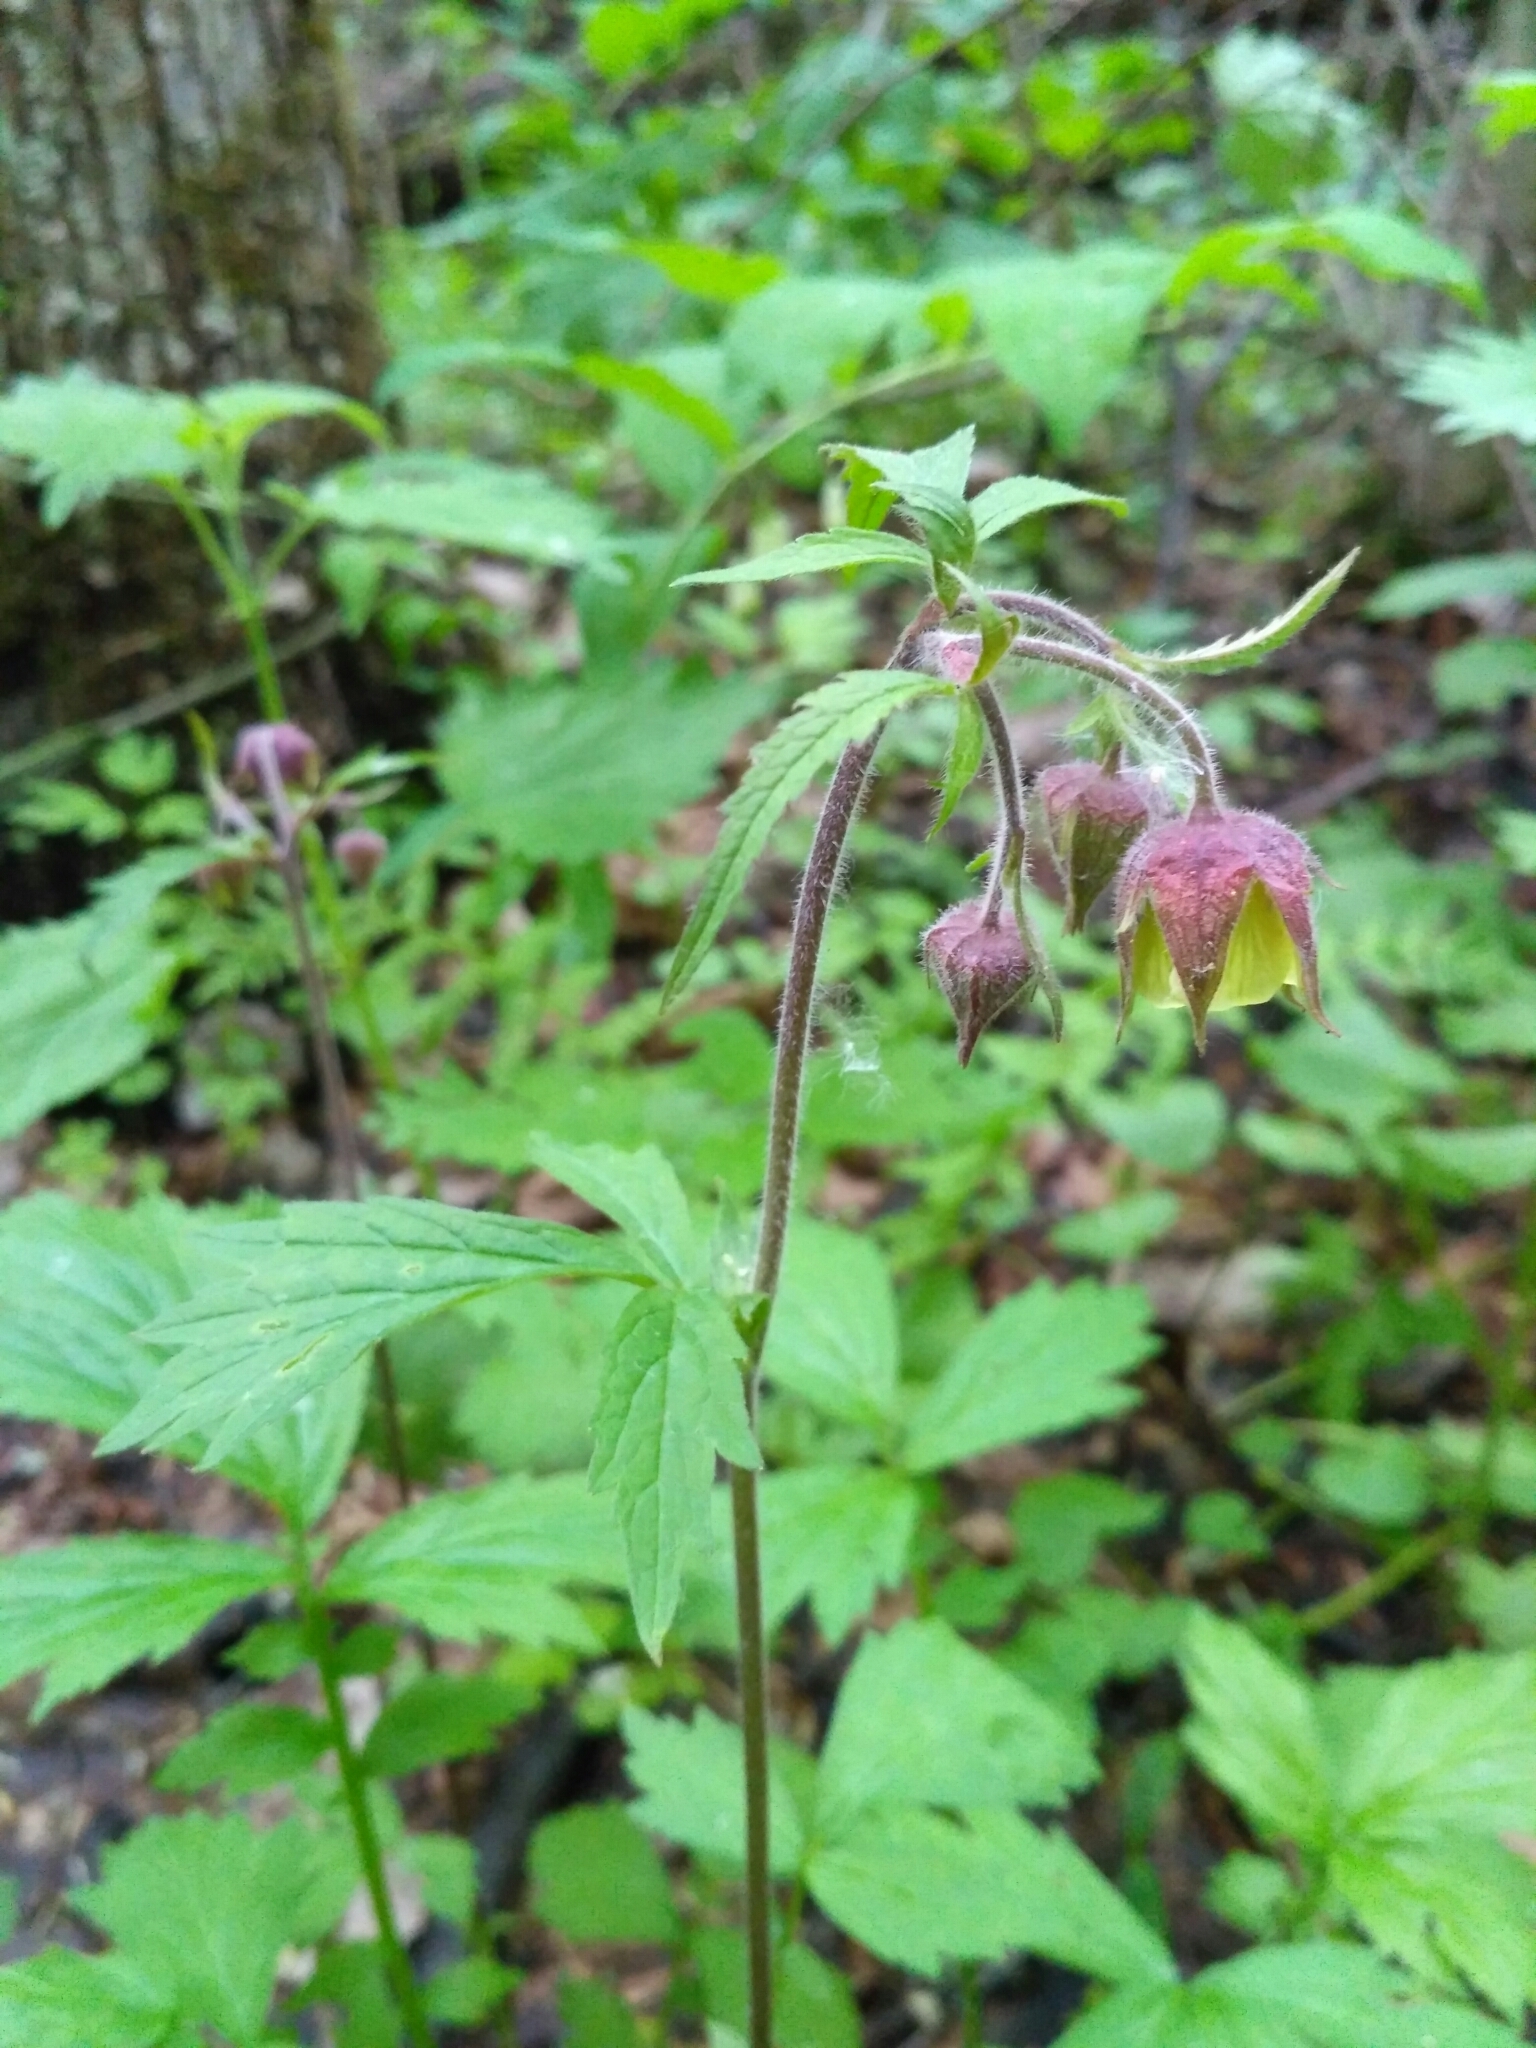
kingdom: Plantae
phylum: Tracheophyta
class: Magnoliopsida
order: Rosales
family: Rosaceae
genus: Geum
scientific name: Geum rivale
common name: Water avens
